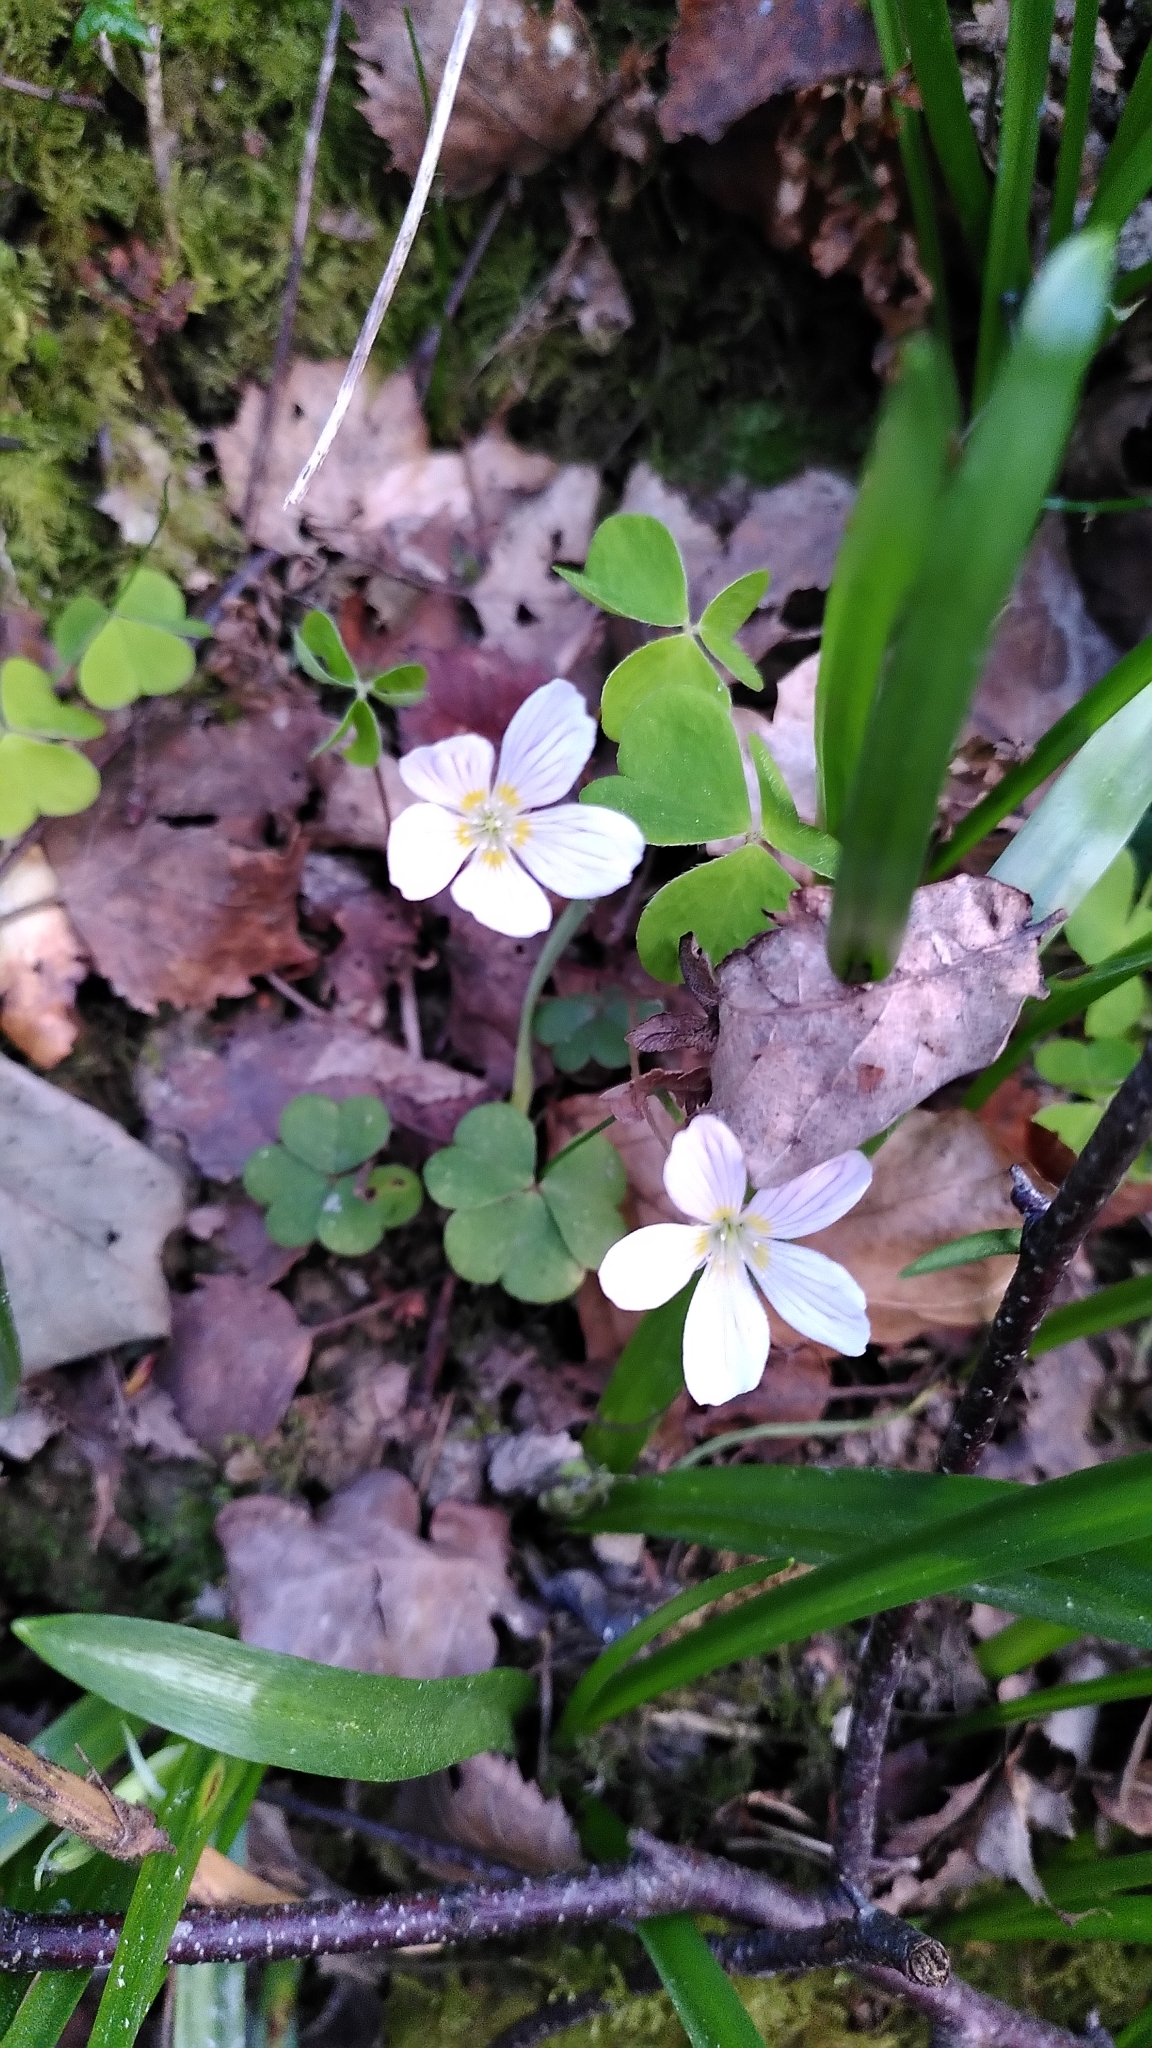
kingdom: Plantae
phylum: Tracheophyta
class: Magnoliopsida
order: Oxalidales
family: Oxalidaceae
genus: Oxalis
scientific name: Oxalis acetosella
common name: Wood-sorrel
